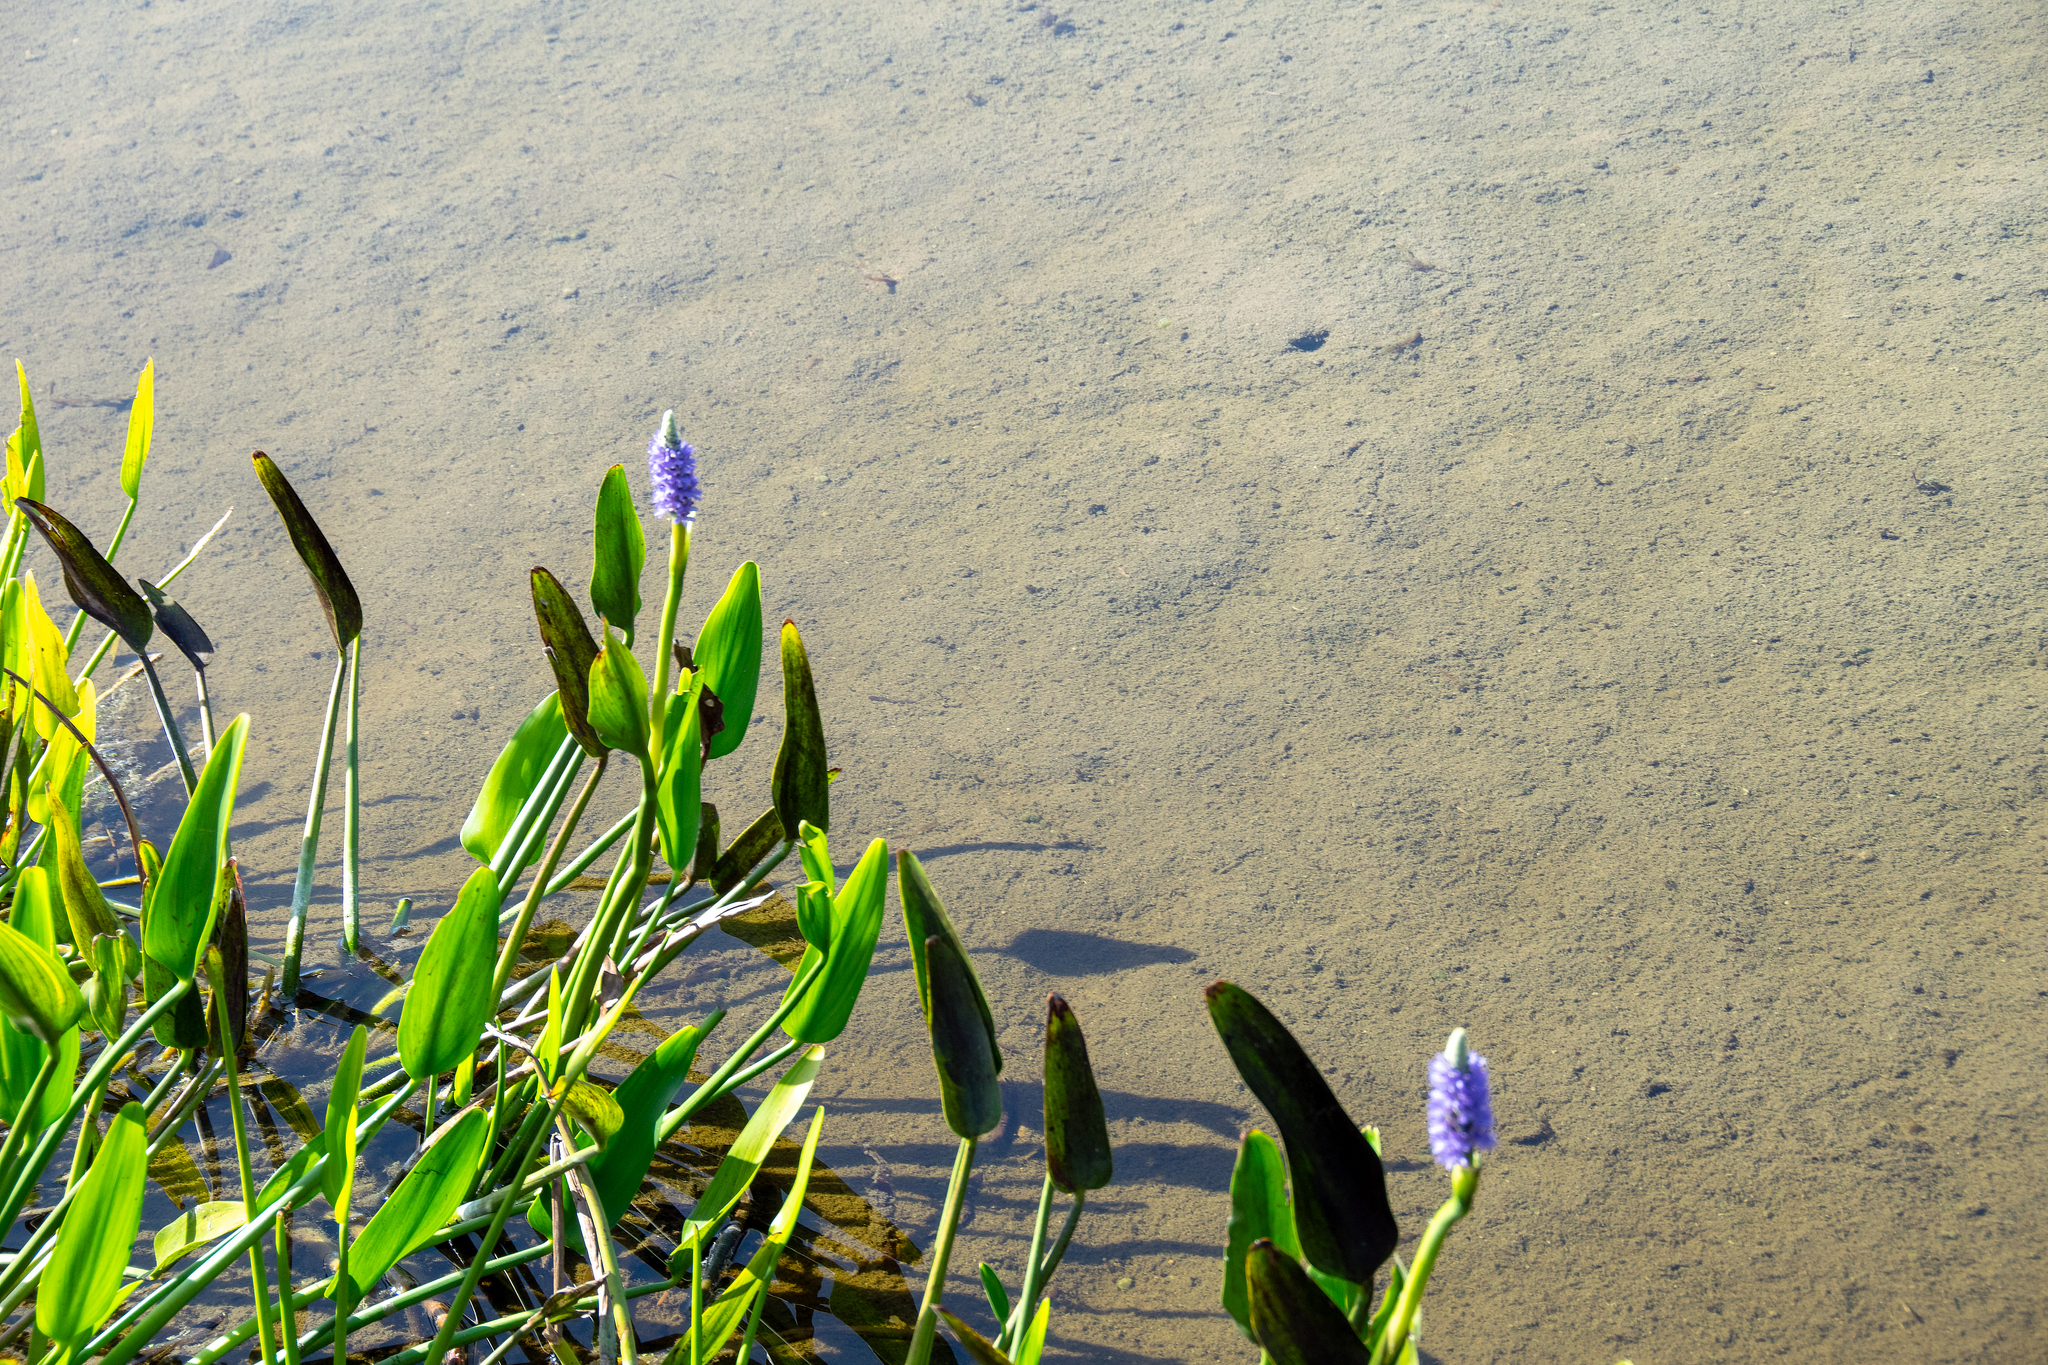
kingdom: Plantae
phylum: Tracheophyta
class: Liliopsida
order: Commelinales
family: Pontederiaceae
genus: Pontederia
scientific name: Pontederia cordata
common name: Pickerelweed
